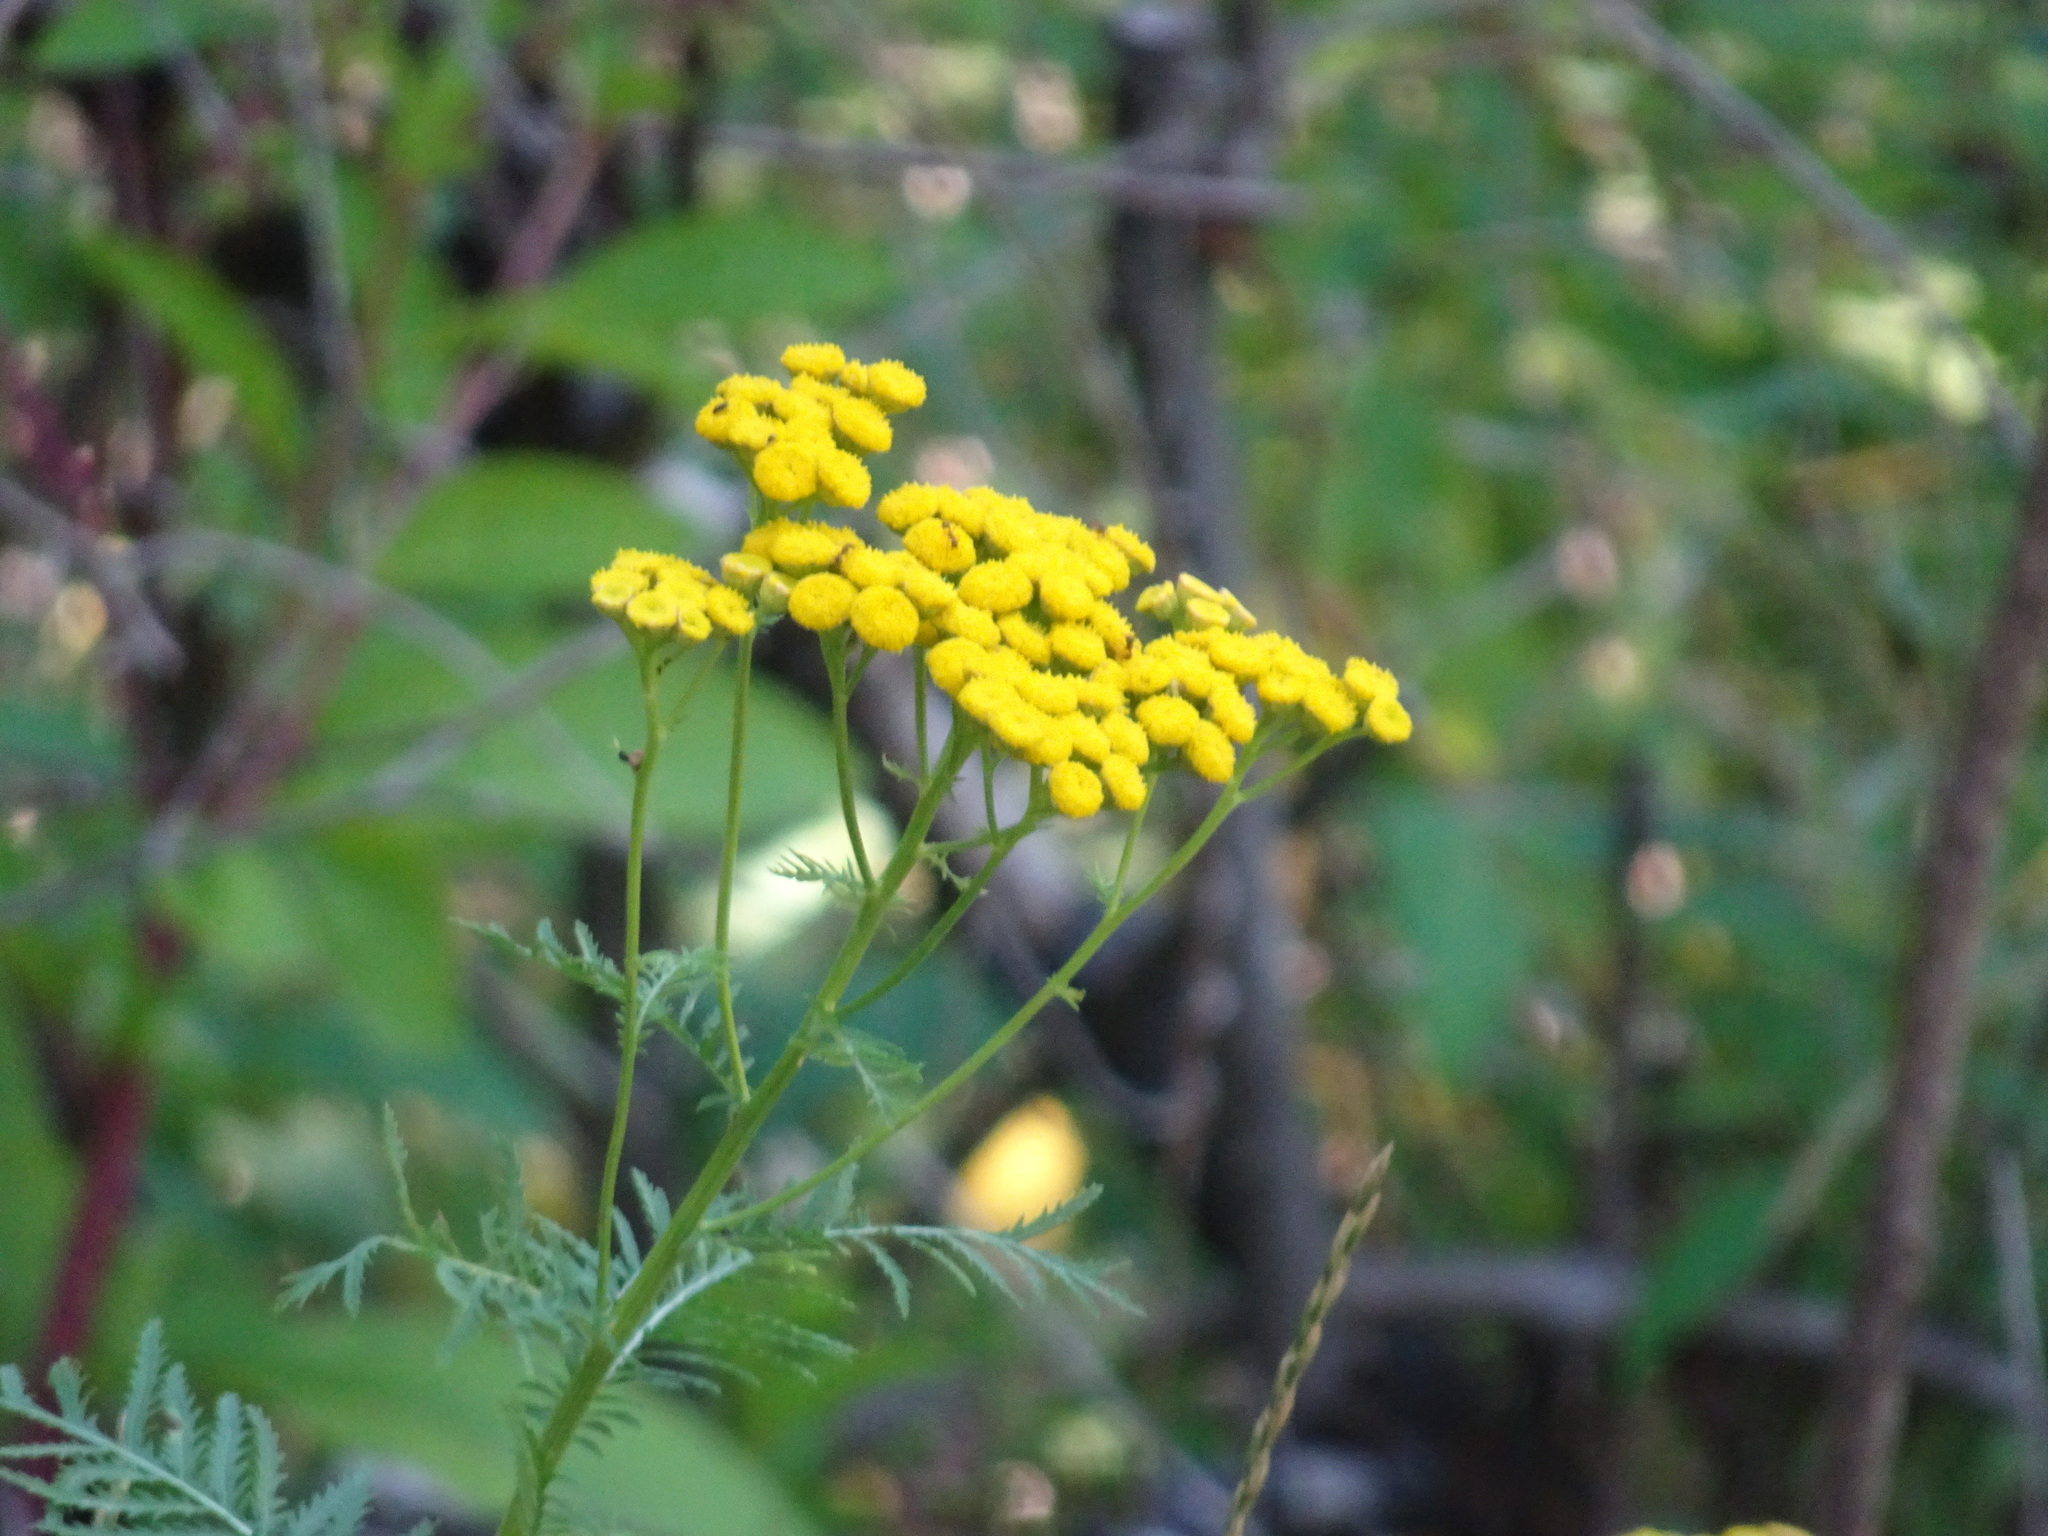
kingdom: Plantae
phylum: Tracheophyta
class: Magnoliopsida
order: Asterales
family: Asteraceae
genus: Tanacetum
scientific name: Tanacetum vulgare
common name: Common tansy
